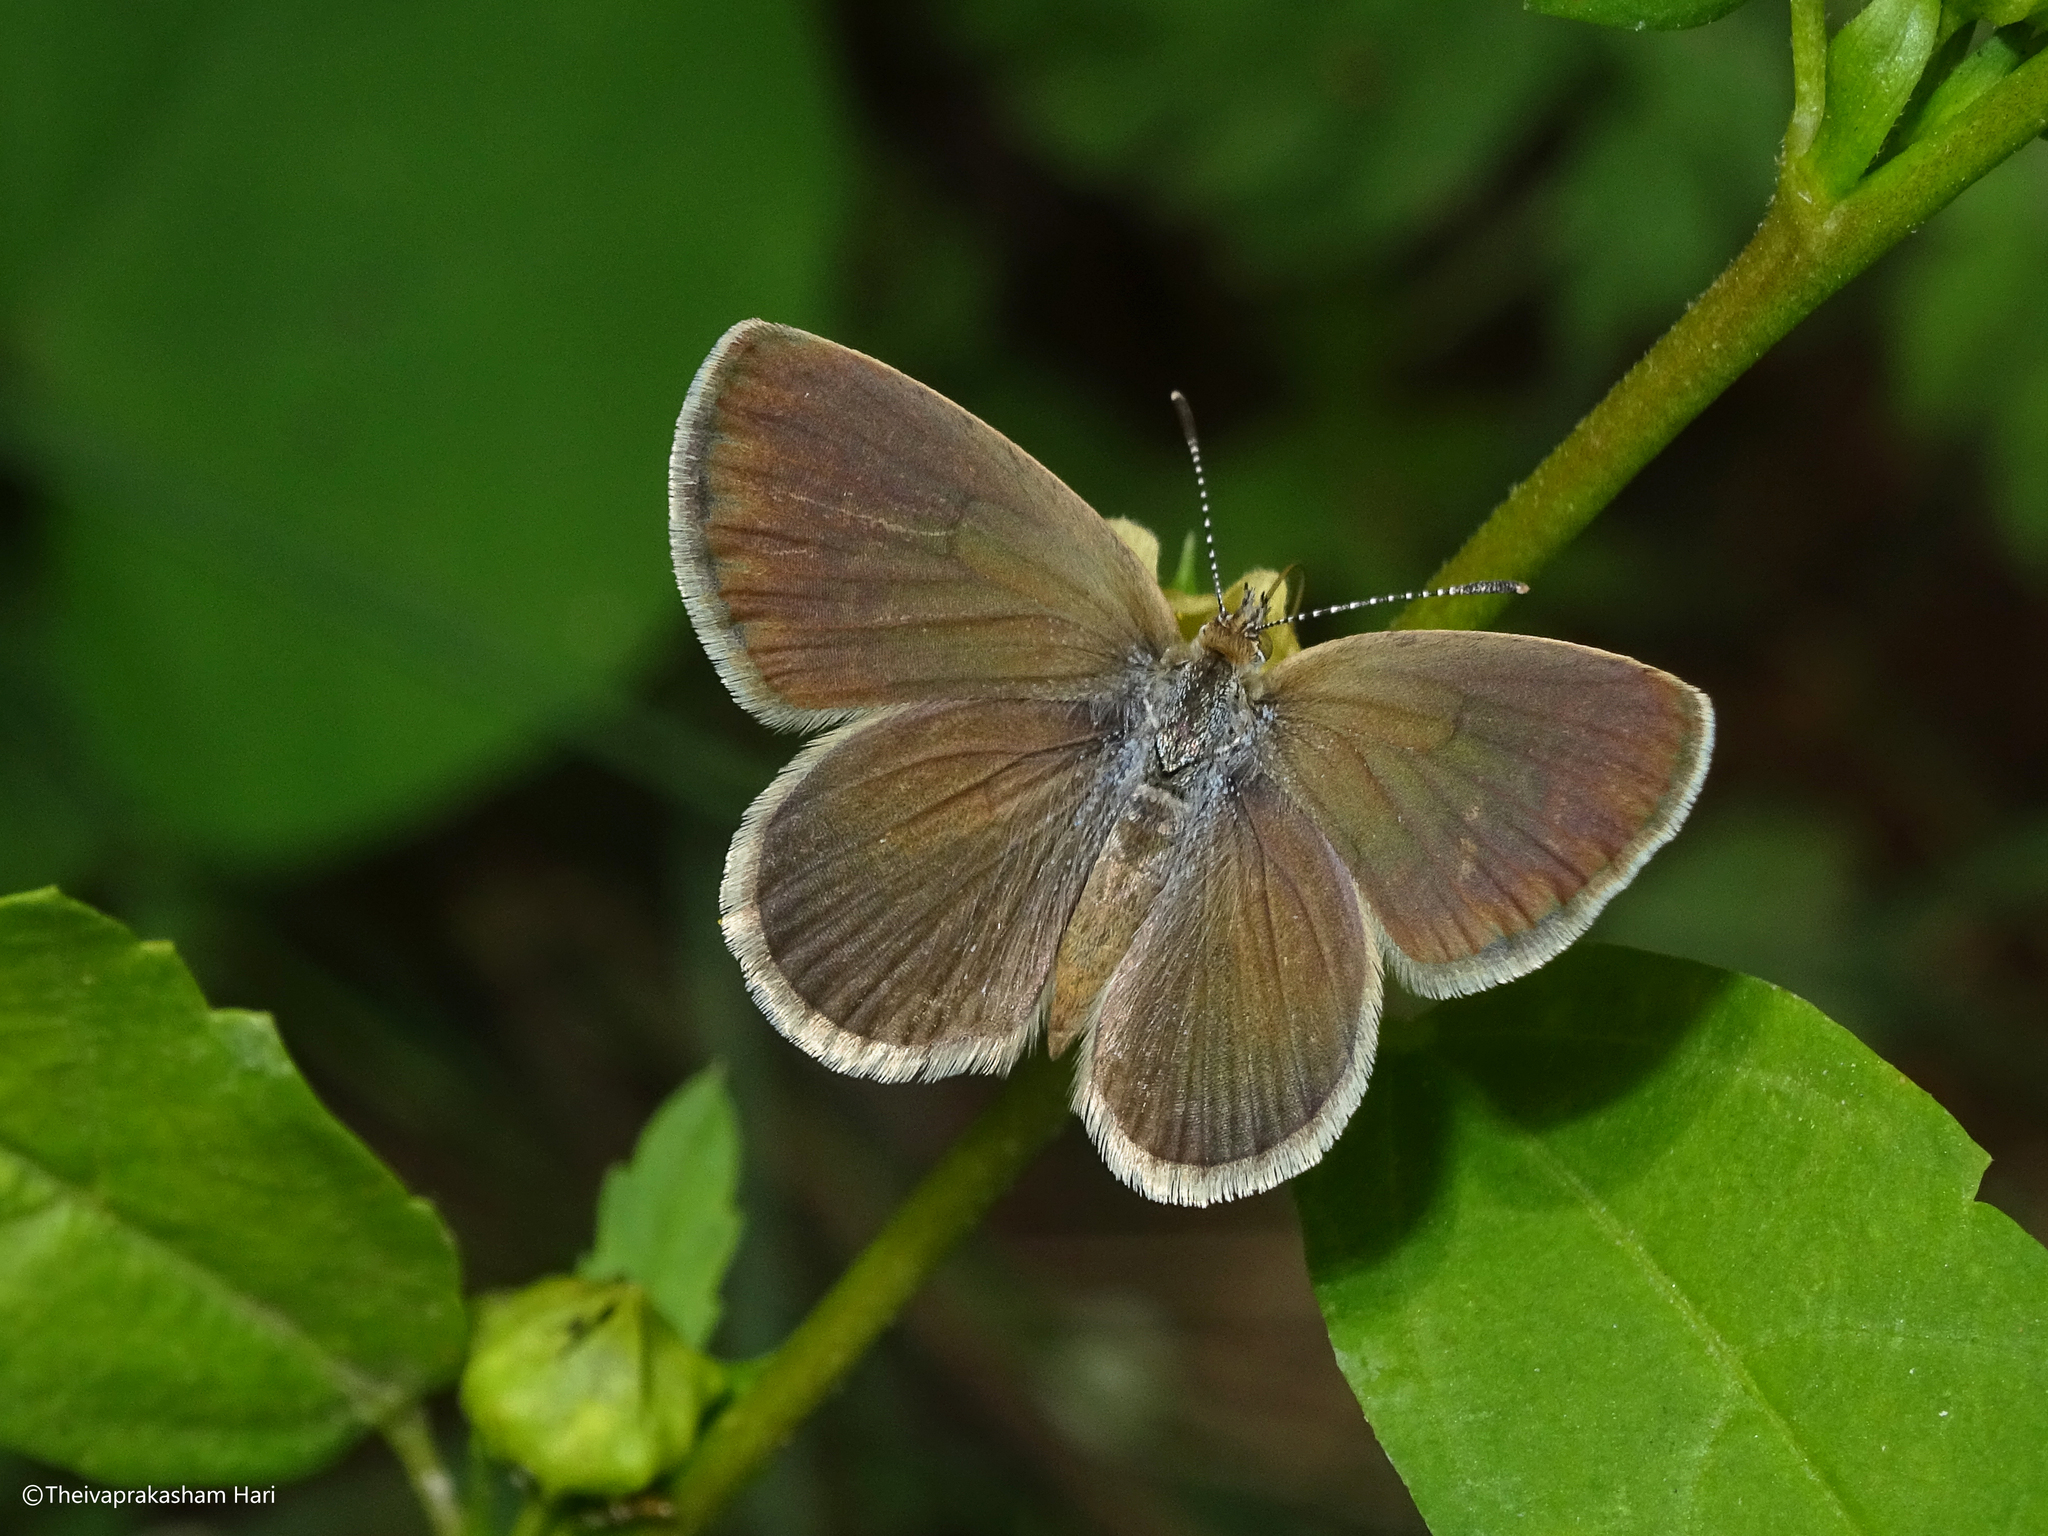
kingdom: Animalia
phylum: Arthropoda
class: Insecta
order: Lepidoptera
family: Lycaenidae
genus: Zizeeria
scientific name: Zizeeria karsandra
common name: Dark grass blue
